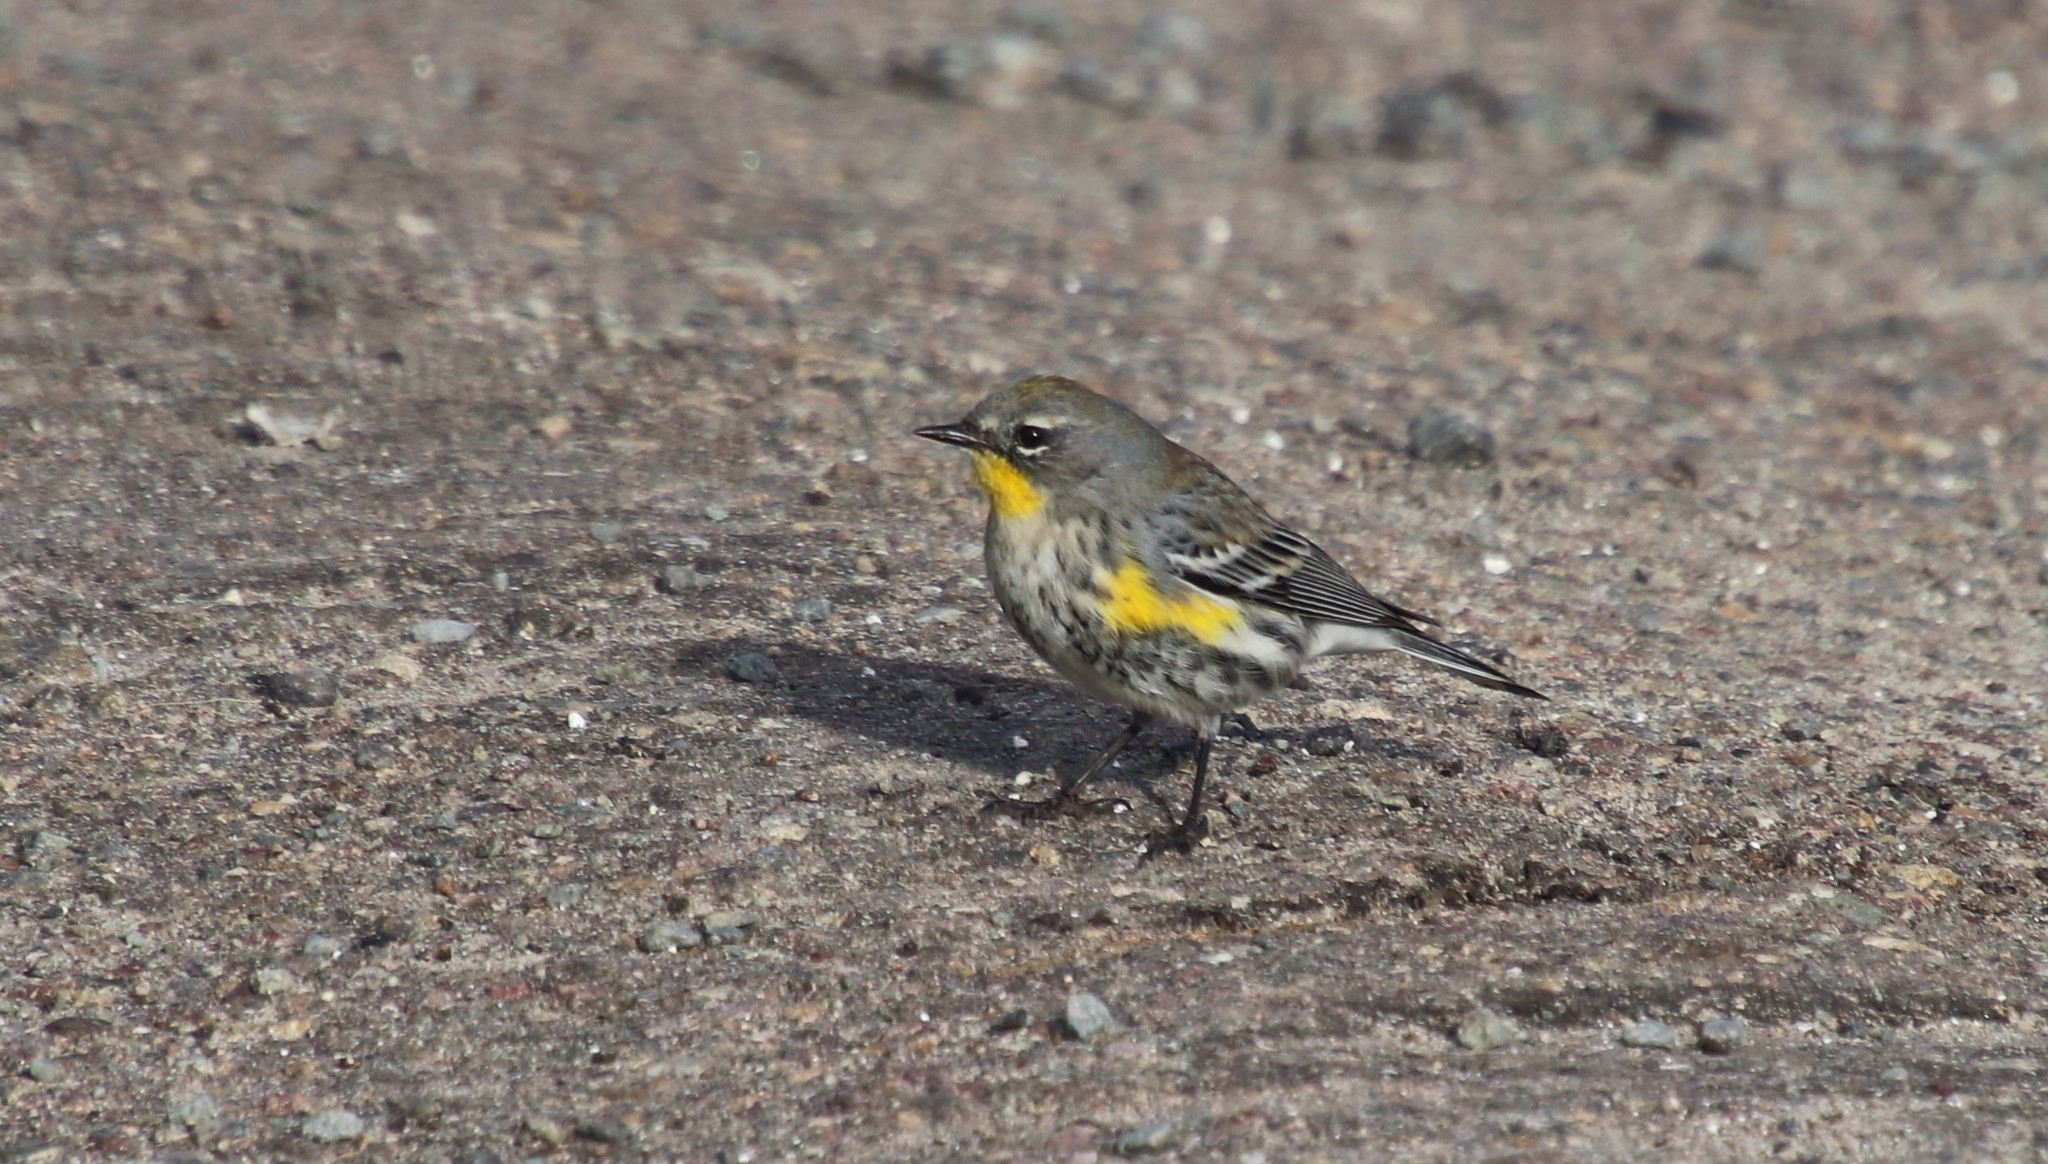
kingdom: Animalia
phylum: Chordata
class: Aves
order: Passeriformes
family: Parulidae
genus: Setophaga
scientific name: Setophaga auduboni
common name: Audubon's warbler
